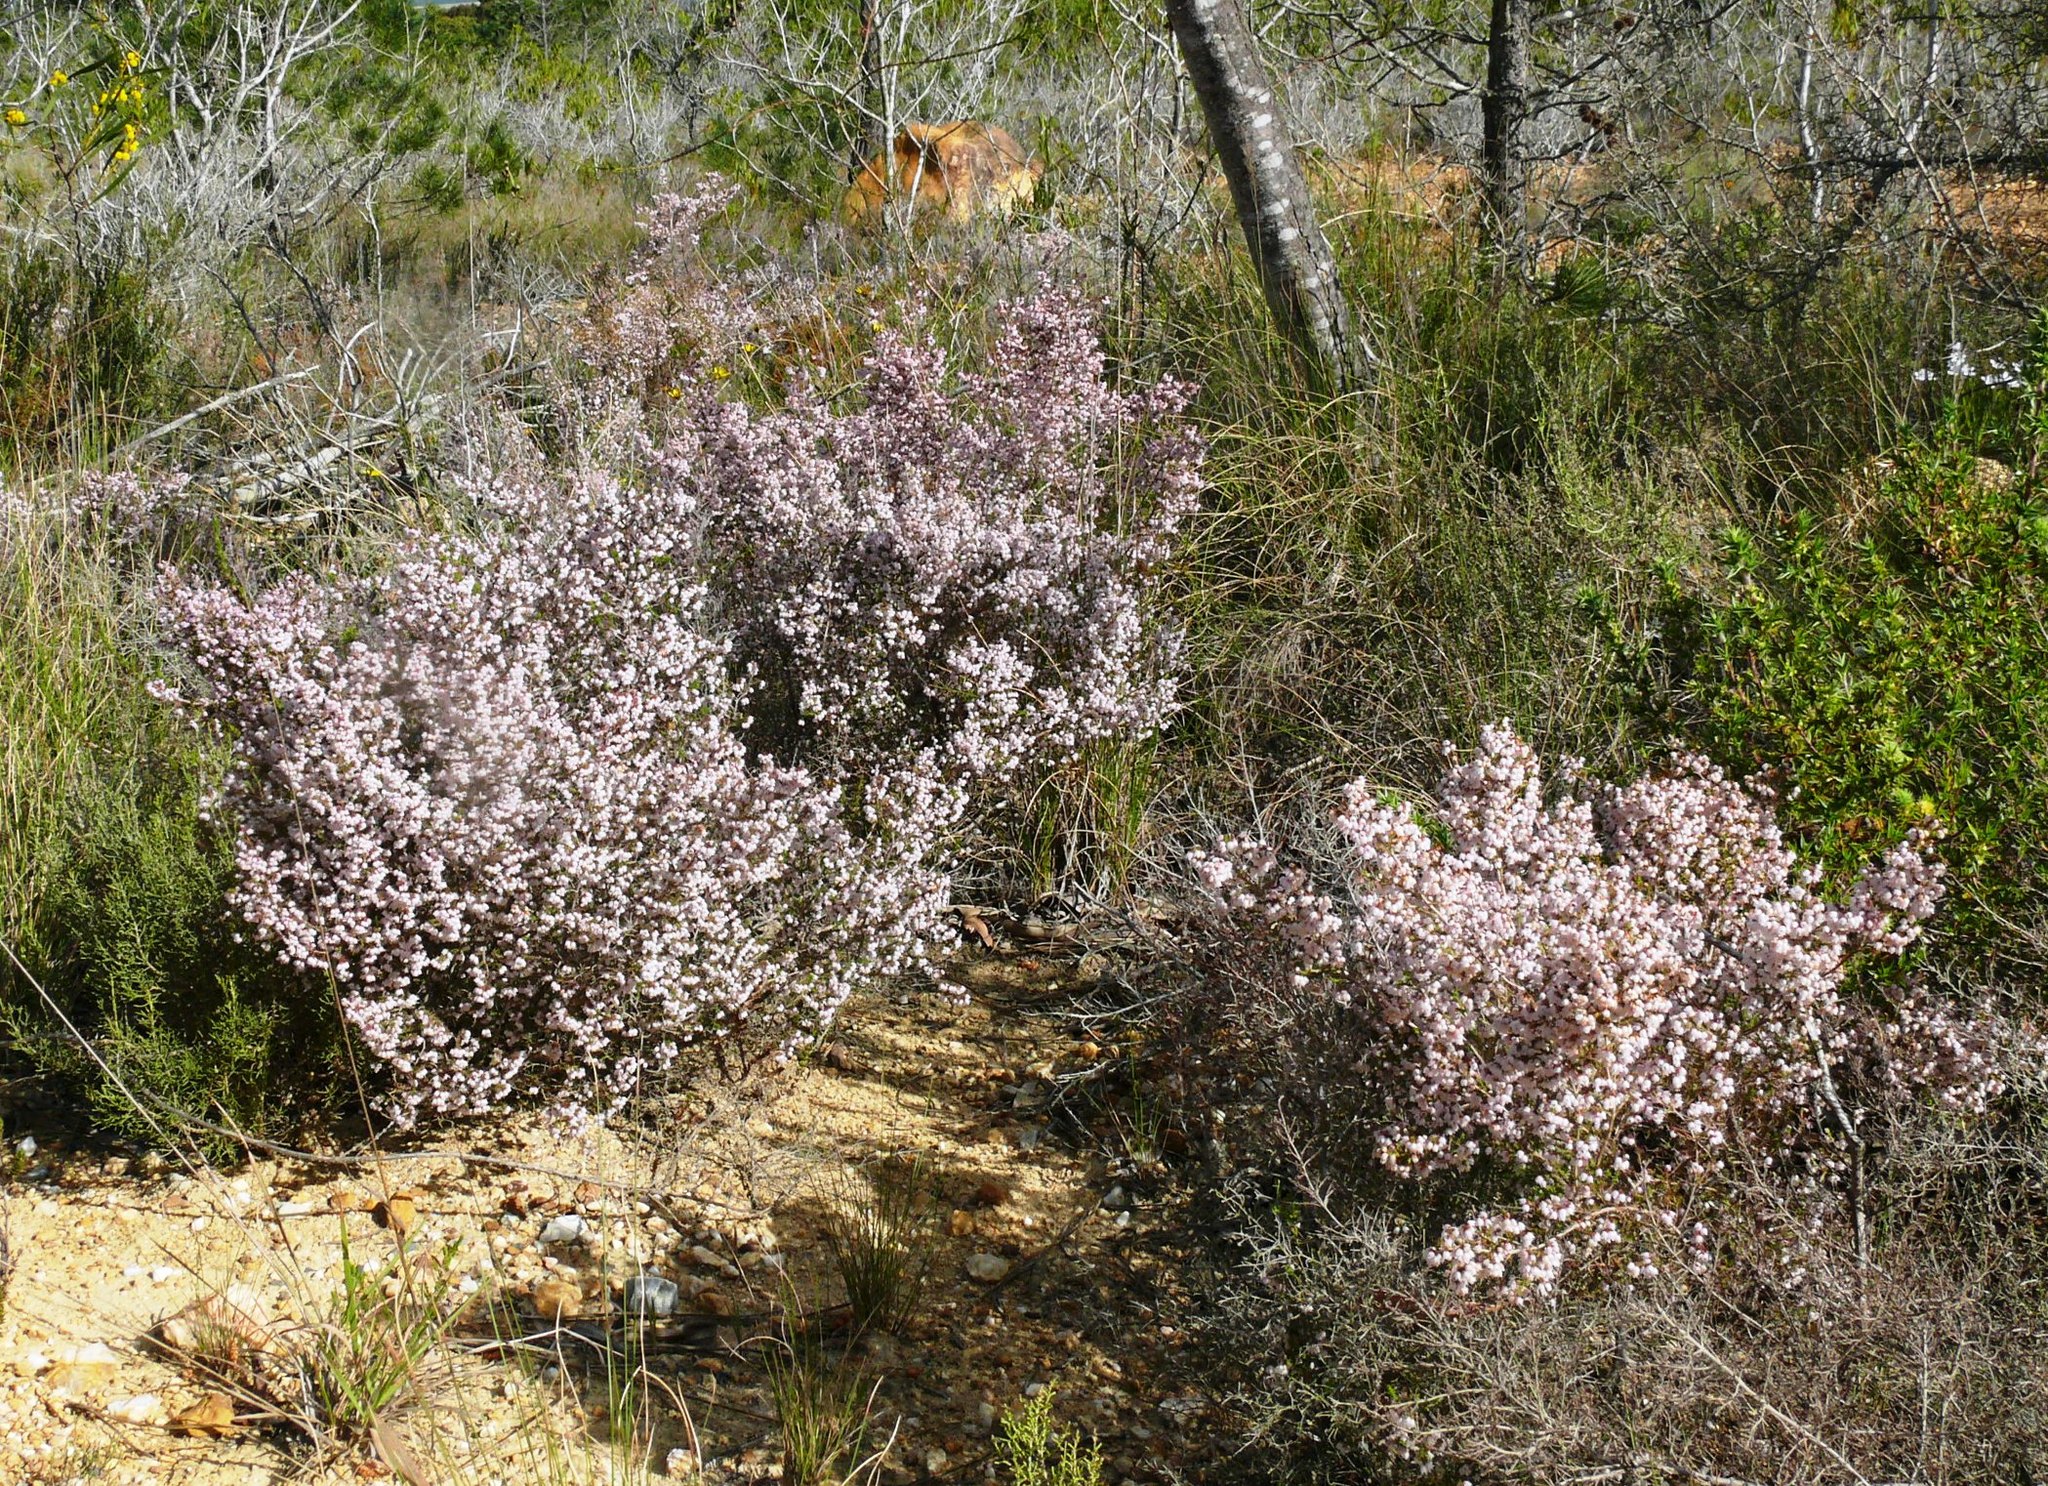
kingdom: Plantae
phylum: Tracheophyta
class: Magnoliopsida
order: Ericales
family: Ericaceae
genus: Erica
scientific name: Erica quadrangularis
